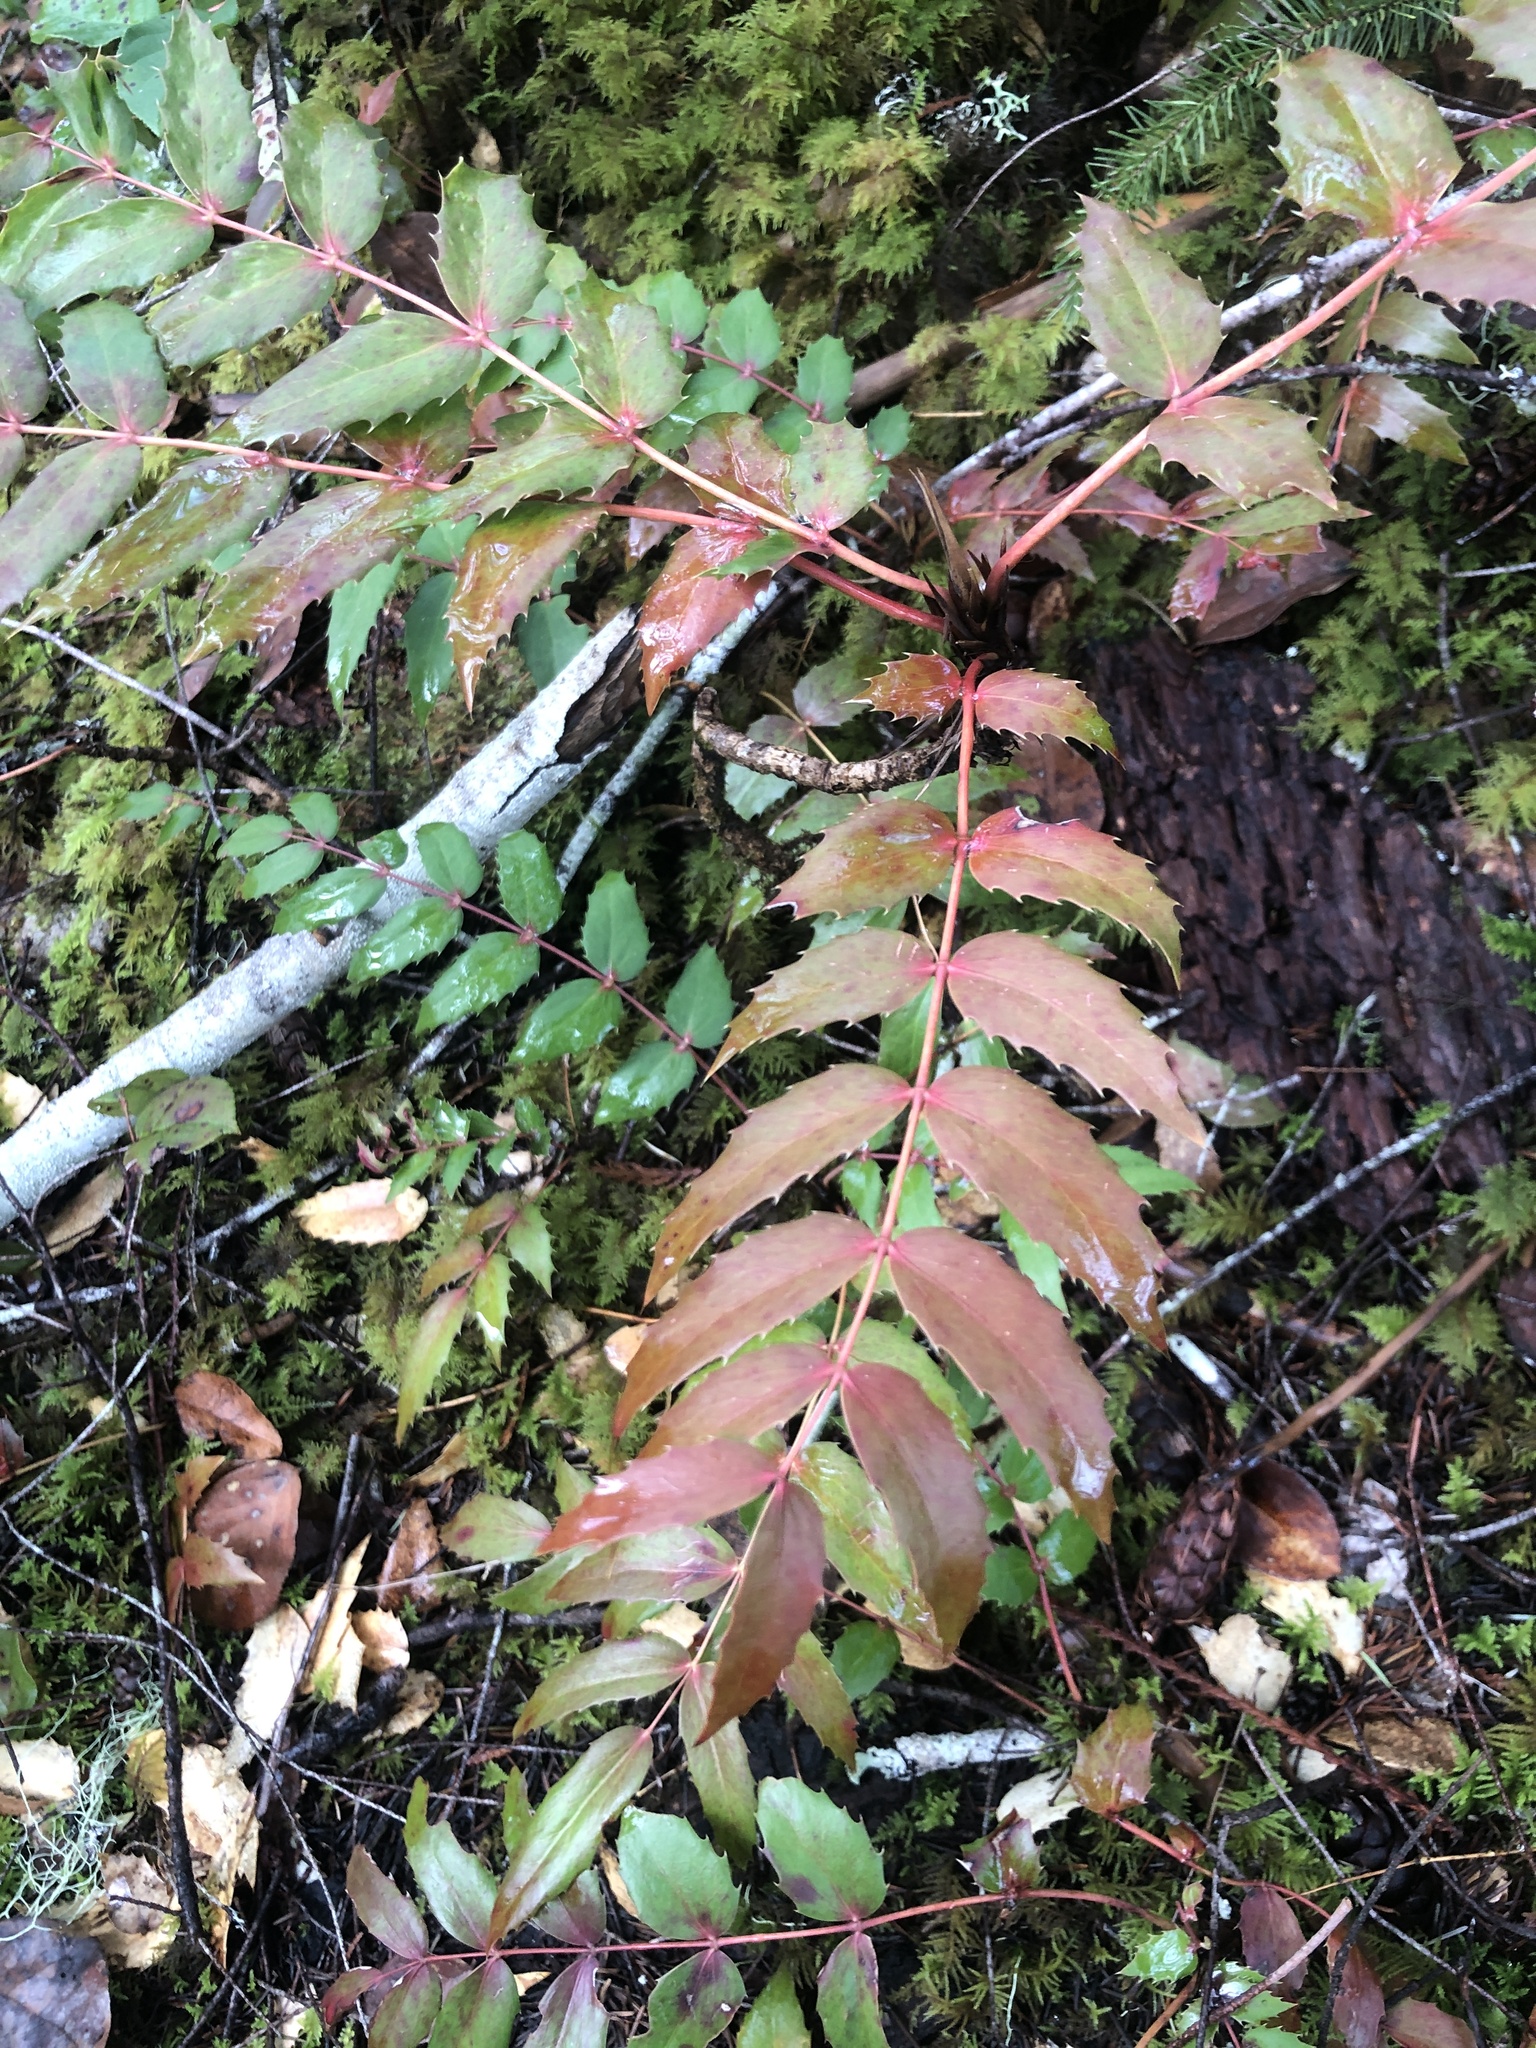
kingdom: Plantae
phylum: Tracheophyta
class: Magnoliopsida
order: Ranunculales
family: Berberidaceae
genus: Mahonia
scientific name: Mahonia nervosa
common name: Cascade oregon-grape
